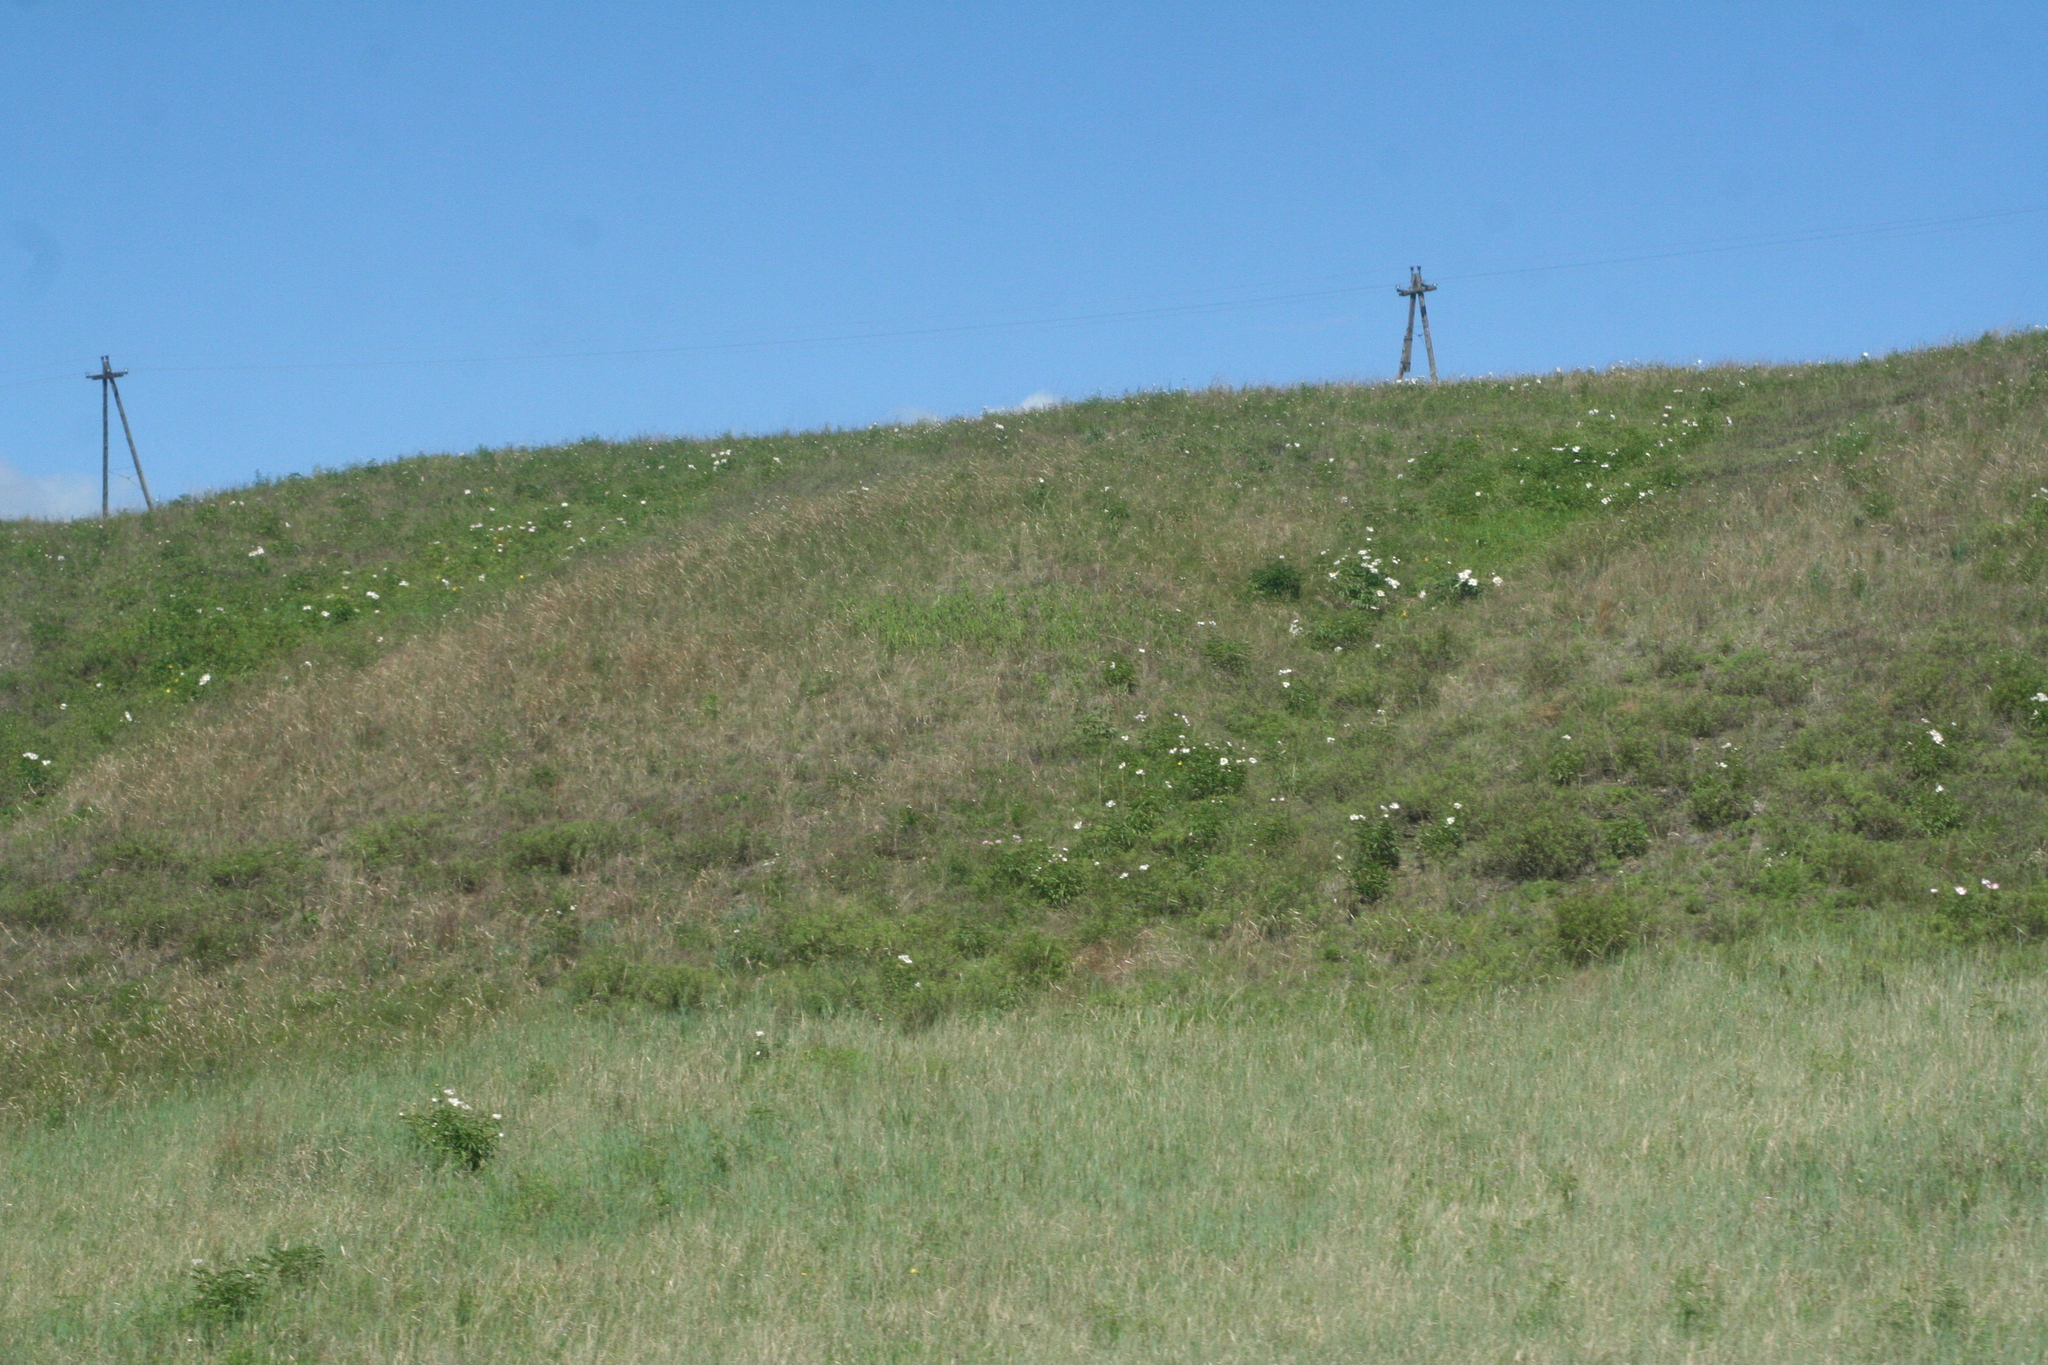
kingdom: Plantae
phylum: Tracheophyta
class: Magnoliopsida
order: Saxifragales
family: Paeoniaceae
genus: Paeonia
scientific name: Paeonia lactiflora
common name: Chinese peony
